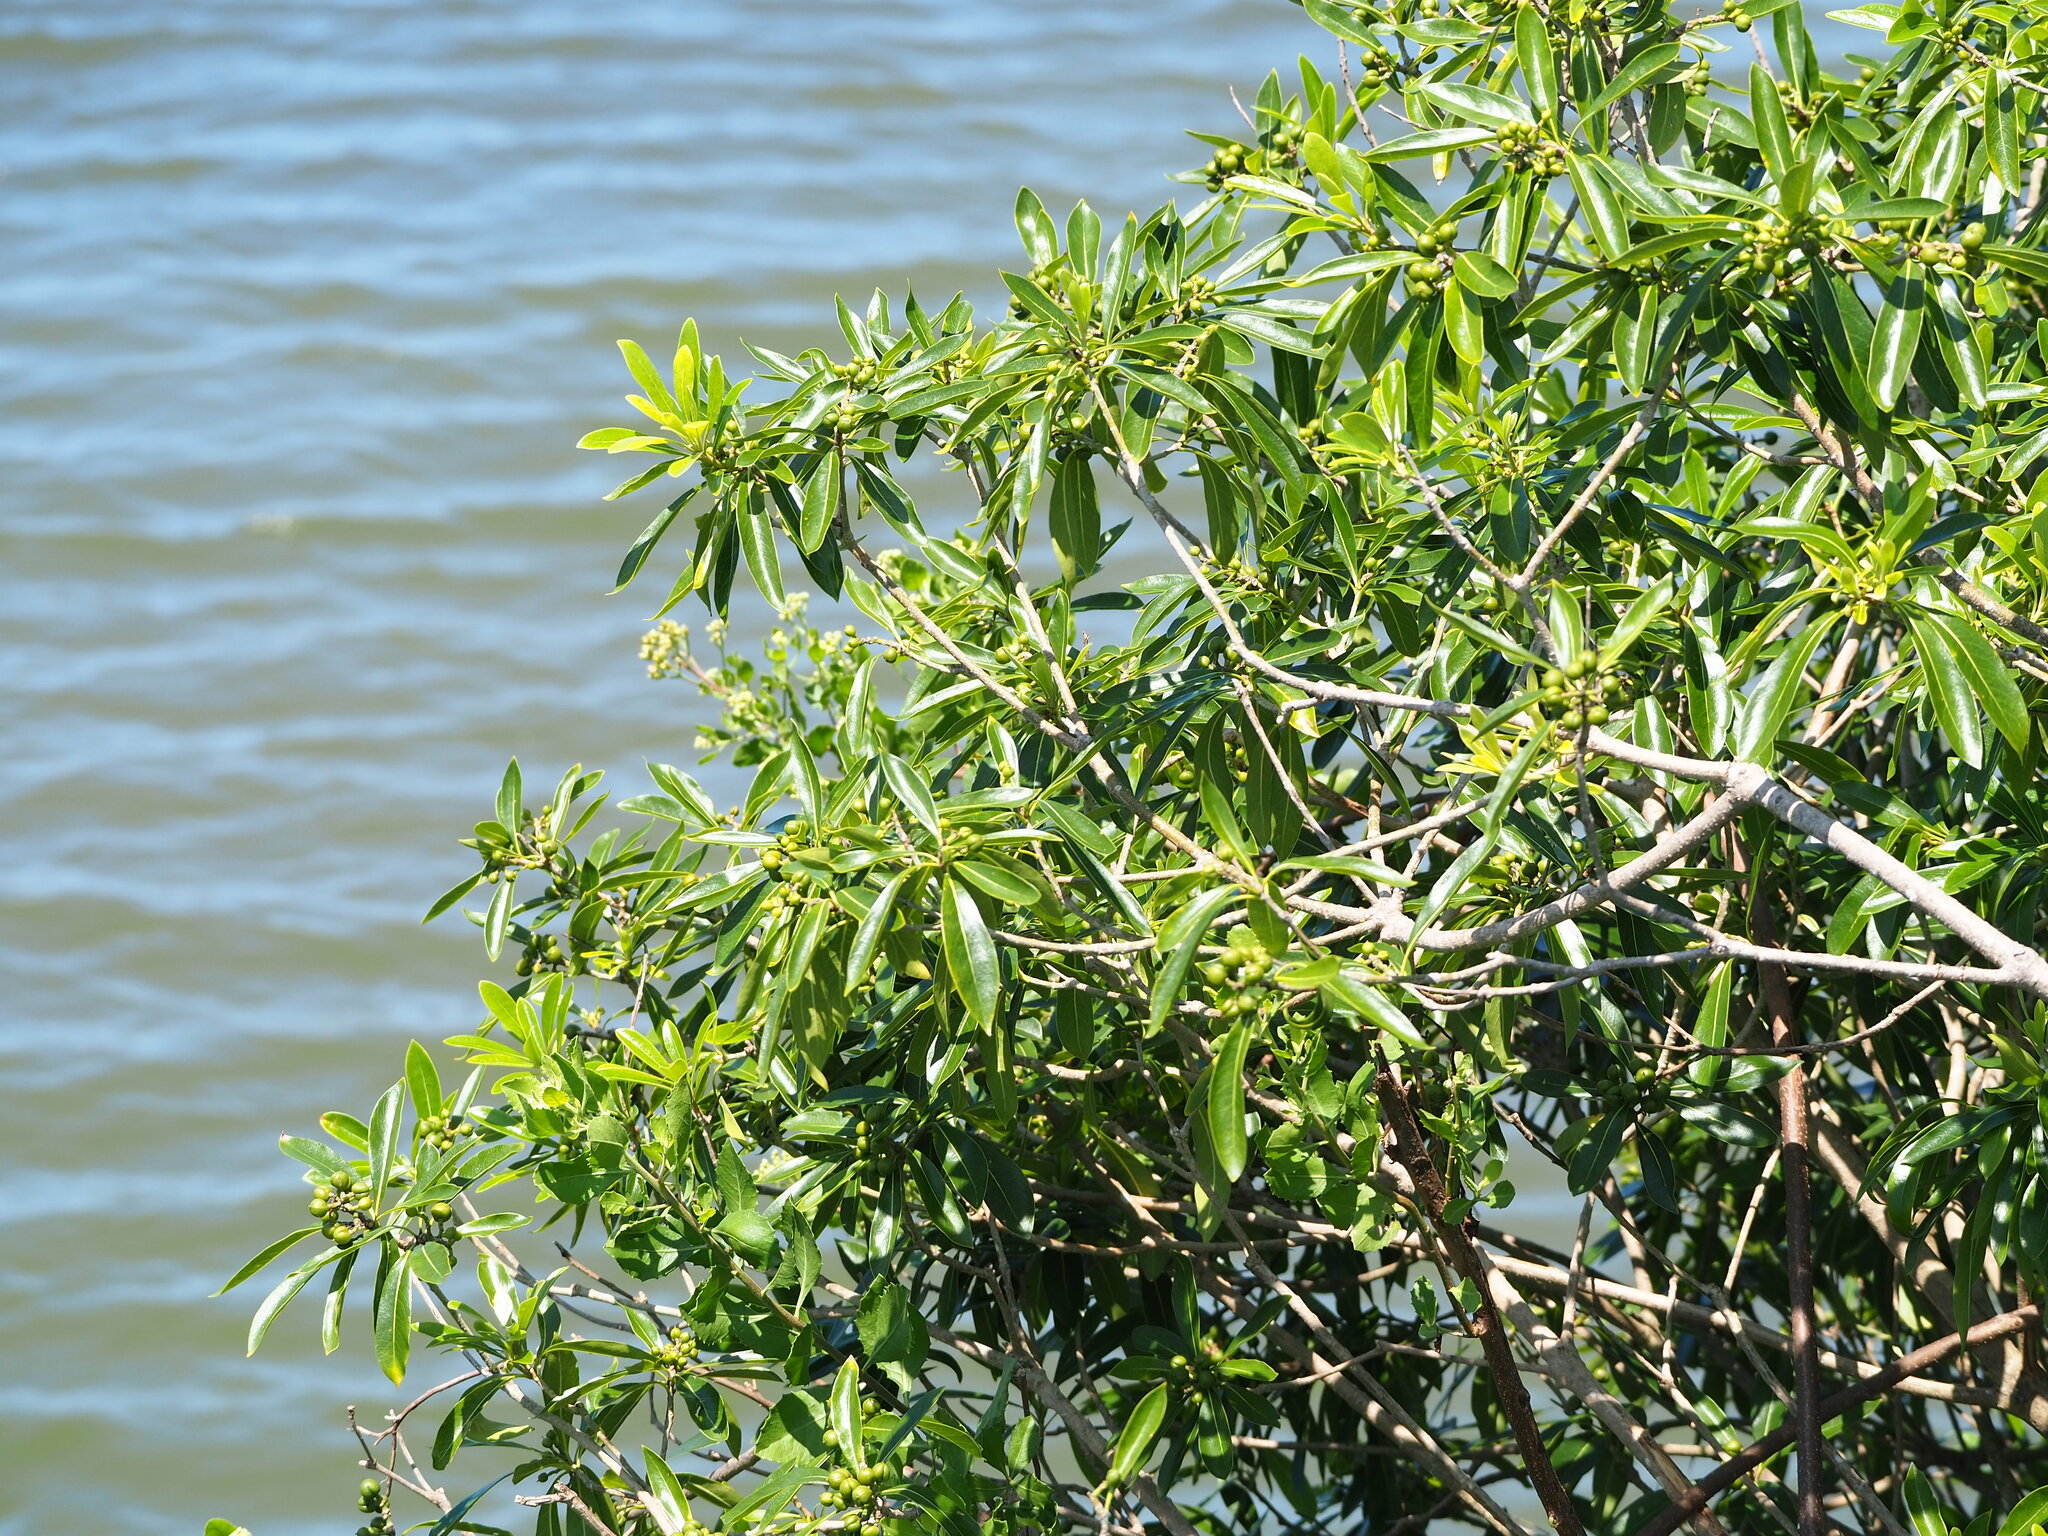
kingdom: Plantae
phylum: Tracheophyta
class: Magnoliopsida
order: Apiales
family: Pittosporaceae
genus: Pittosporum
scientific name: Pittosporum pentandrum
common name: Taiwanese cheesewood
